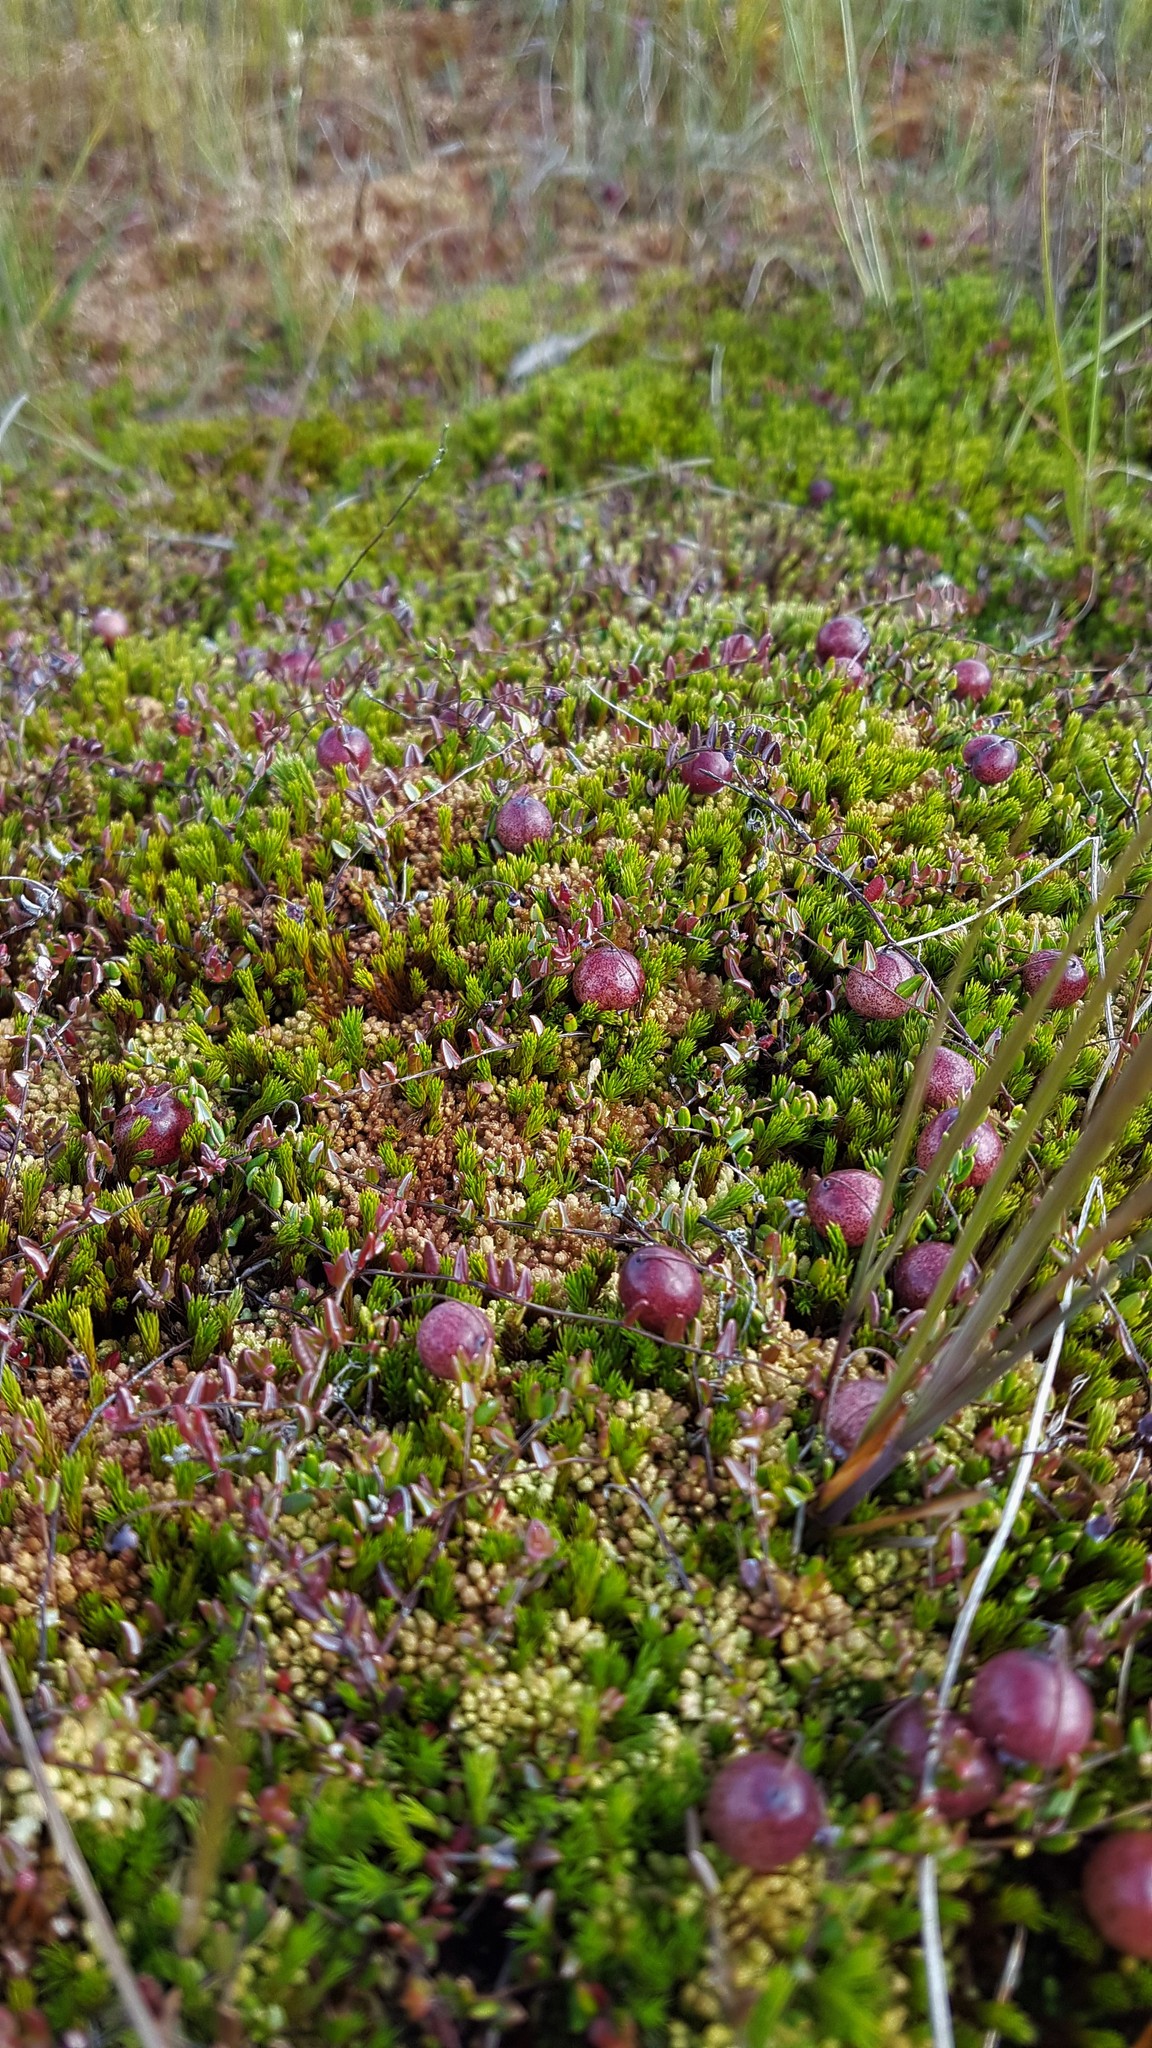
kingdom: Plantae
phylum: Tracheophyta
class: Magnoliopsida
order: Ericales
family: Ericaceae
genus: Vaccinium
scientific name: Vaccinium oxycoccos
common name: Cranberry
